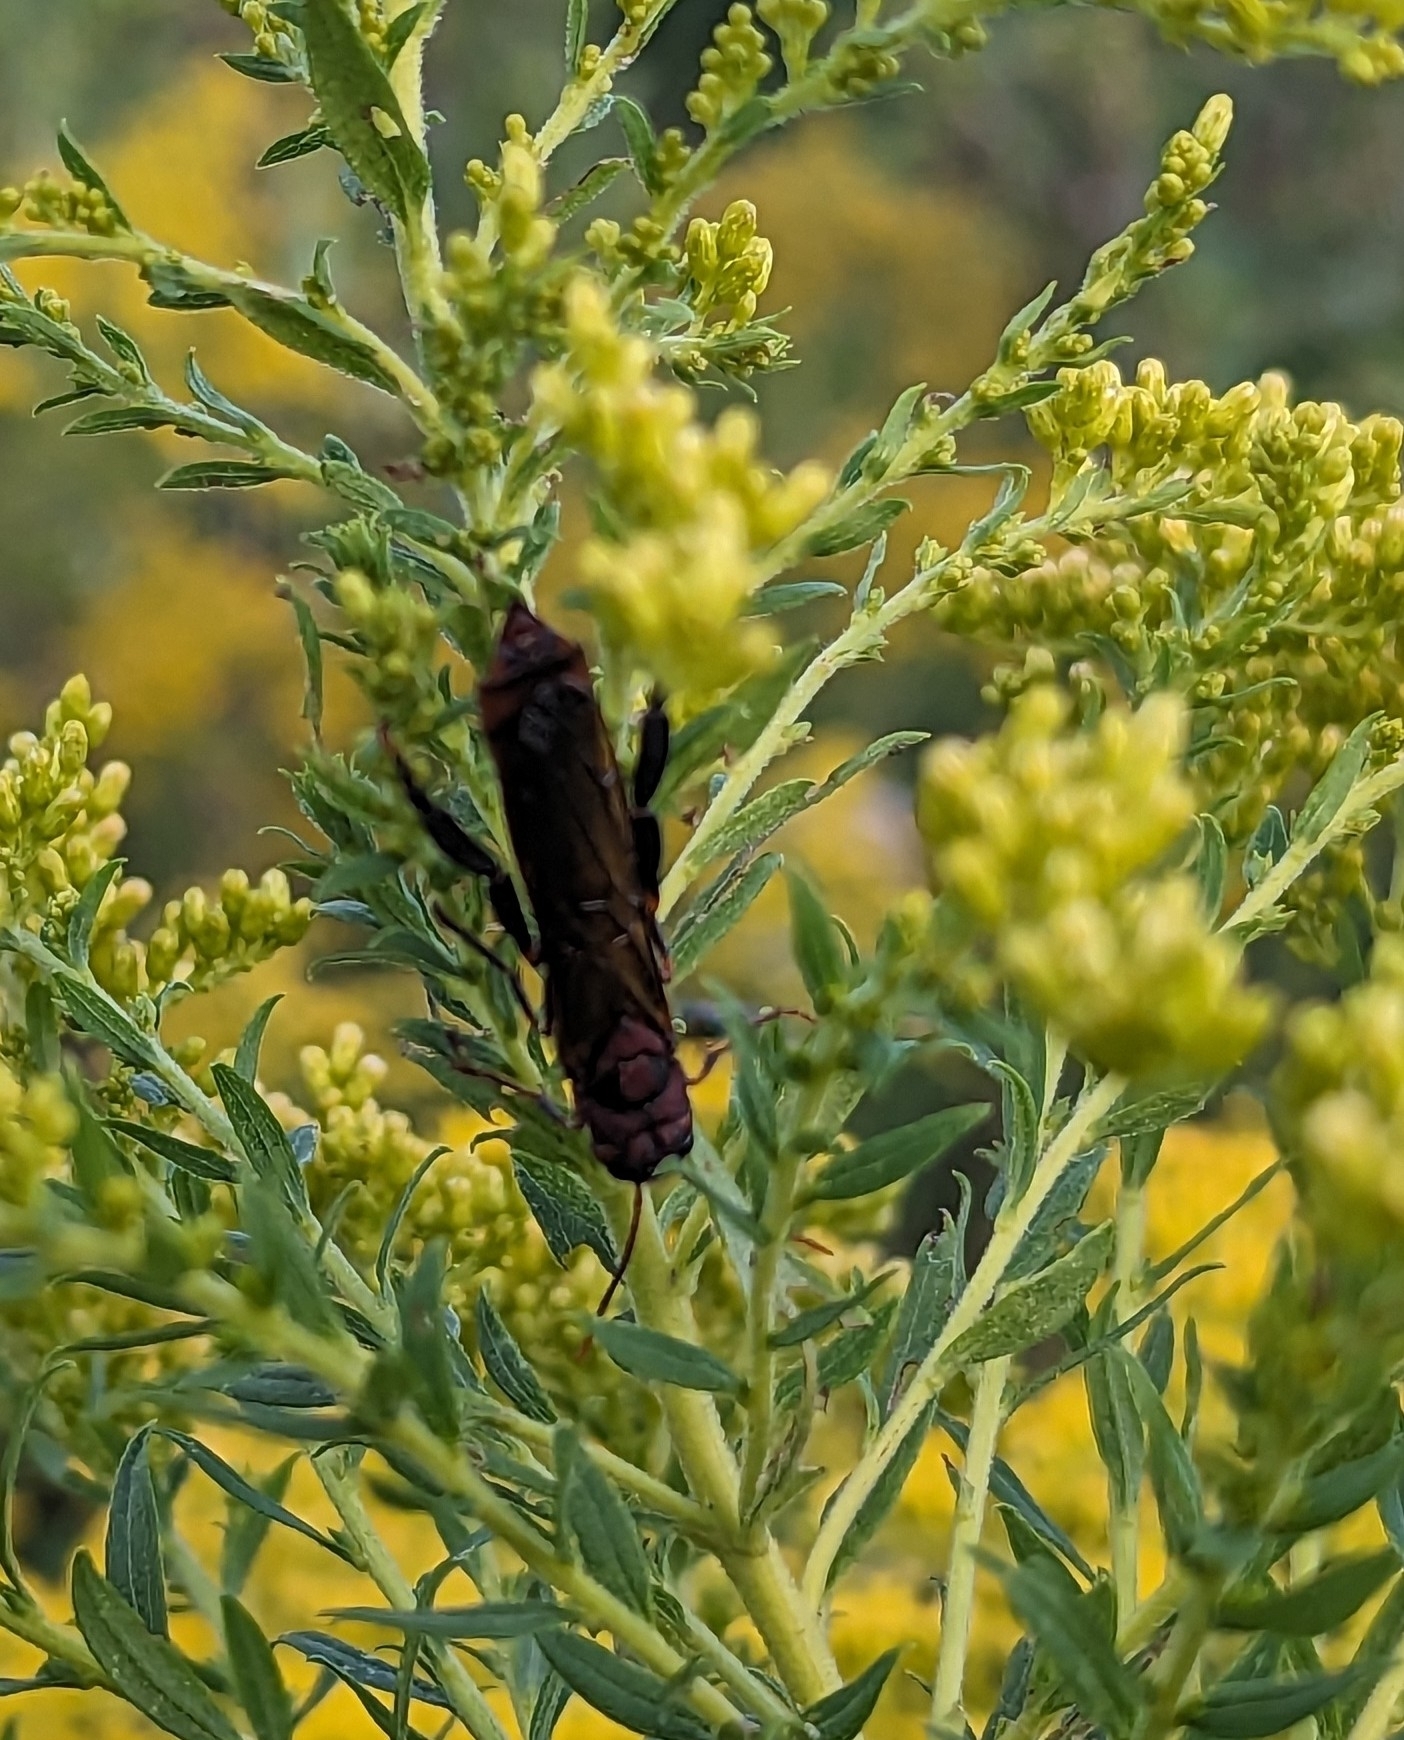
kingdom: Animalia
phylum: Arthropoda
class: Insecta
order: Hymenoptera
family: Siricidae
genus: Tremex
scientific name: Tremex columba
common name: Wasp
